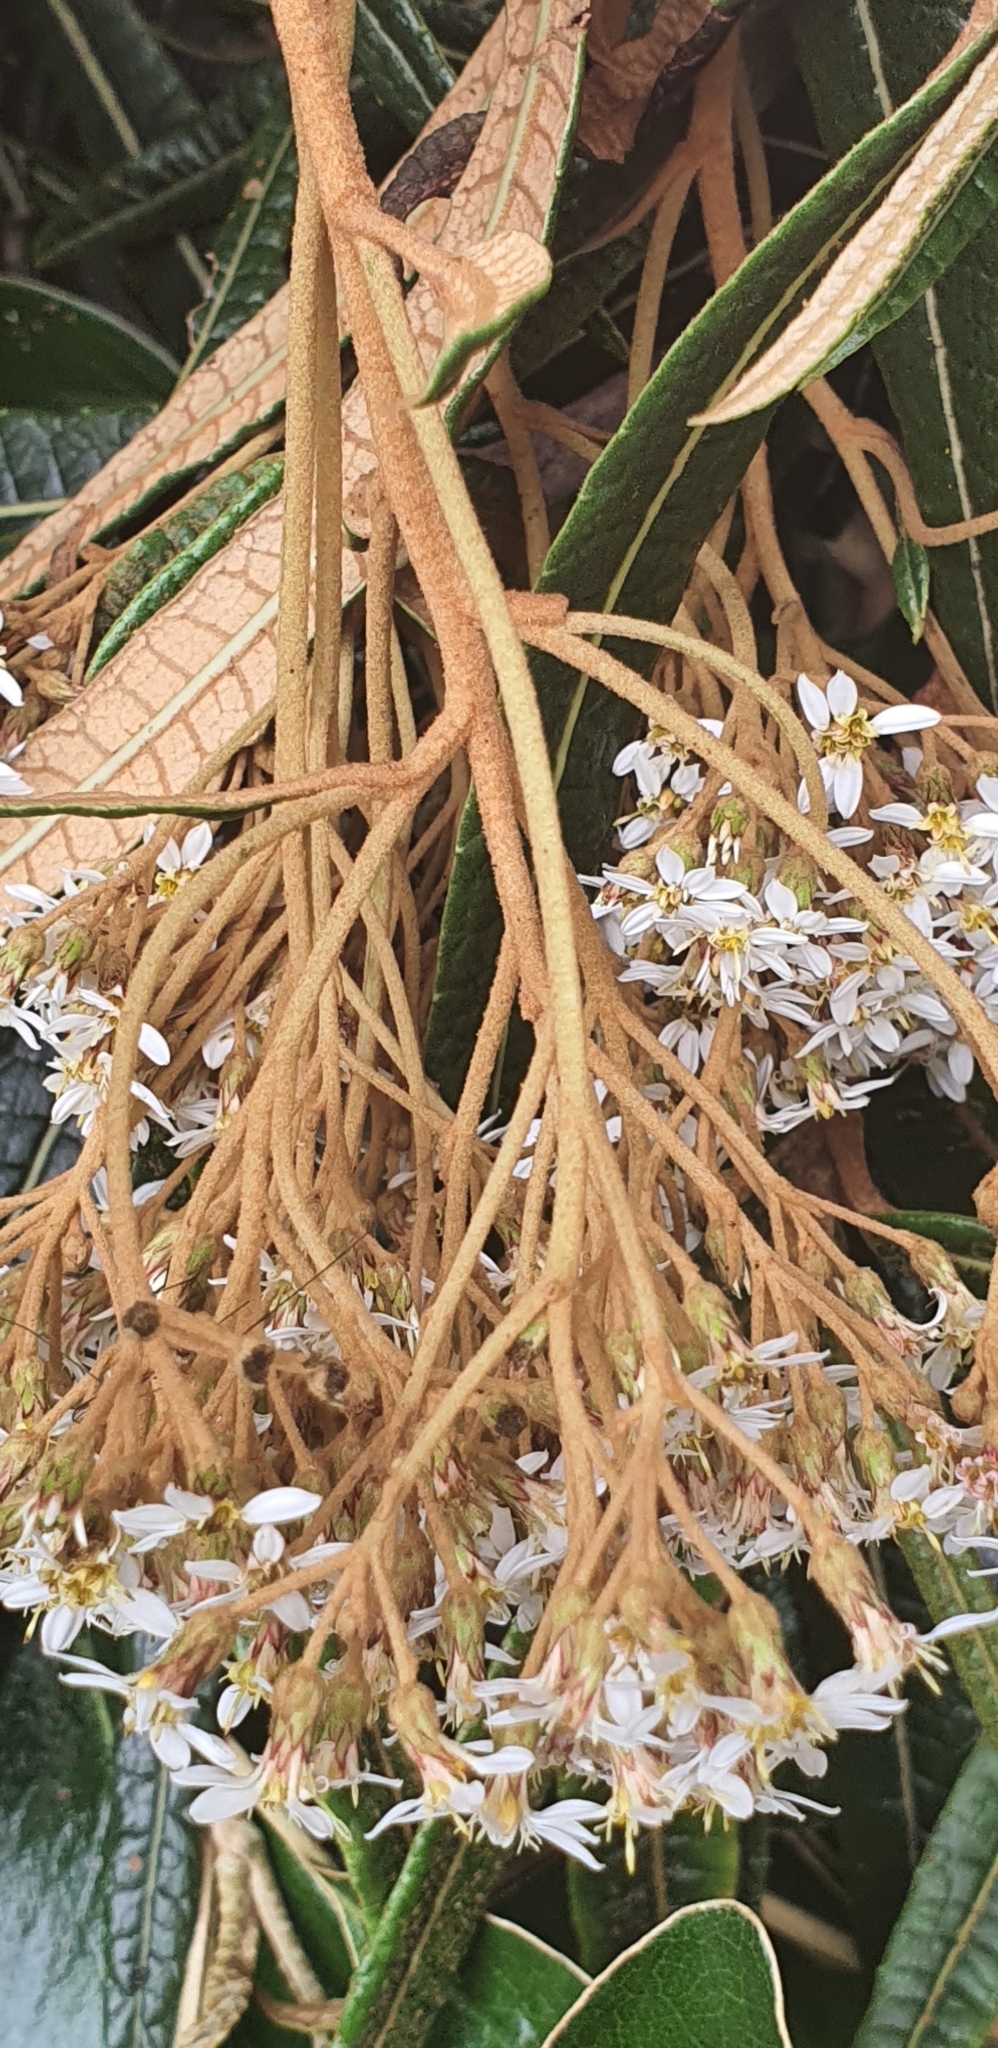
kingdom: Plantae
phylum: Tracheophyta
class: Magnoliopsida
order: Asterales
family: Asteraceae
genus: Olearia
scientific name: Olearia lacunosa
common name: Lancewood tree daisy
